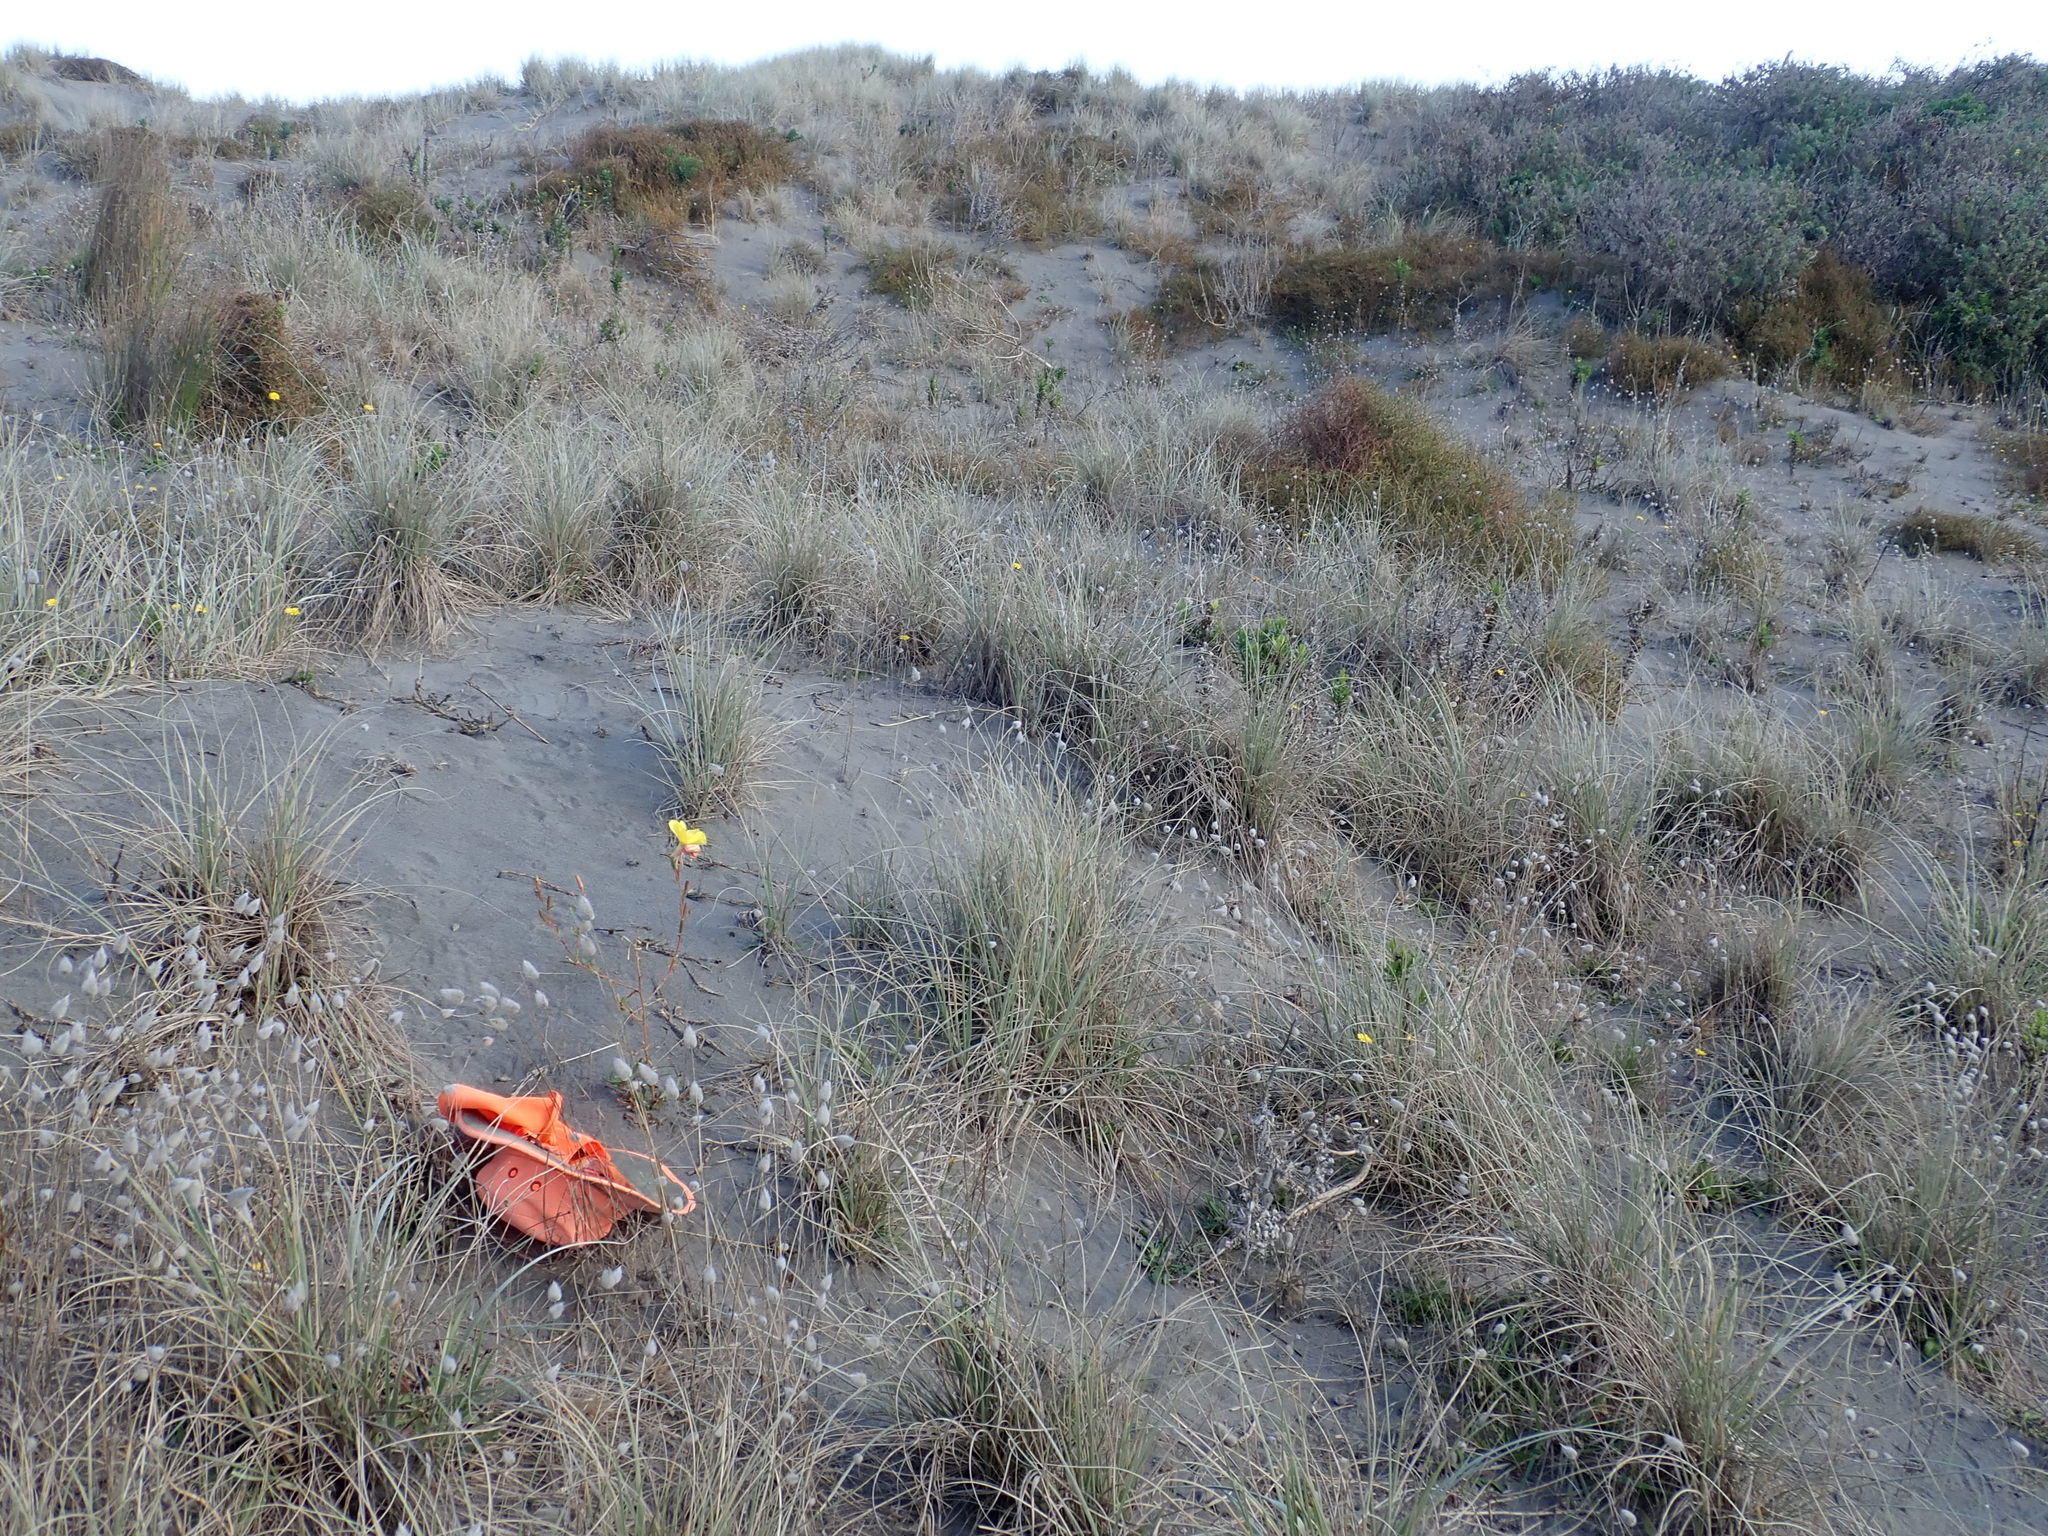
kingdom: Plantae
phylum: Tracheophyta
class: Magnoliopsida
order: Myrtales
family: Onagraceae
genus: Oenothera
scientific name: Oenothera stricta
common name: Fragrant evening-primrose
